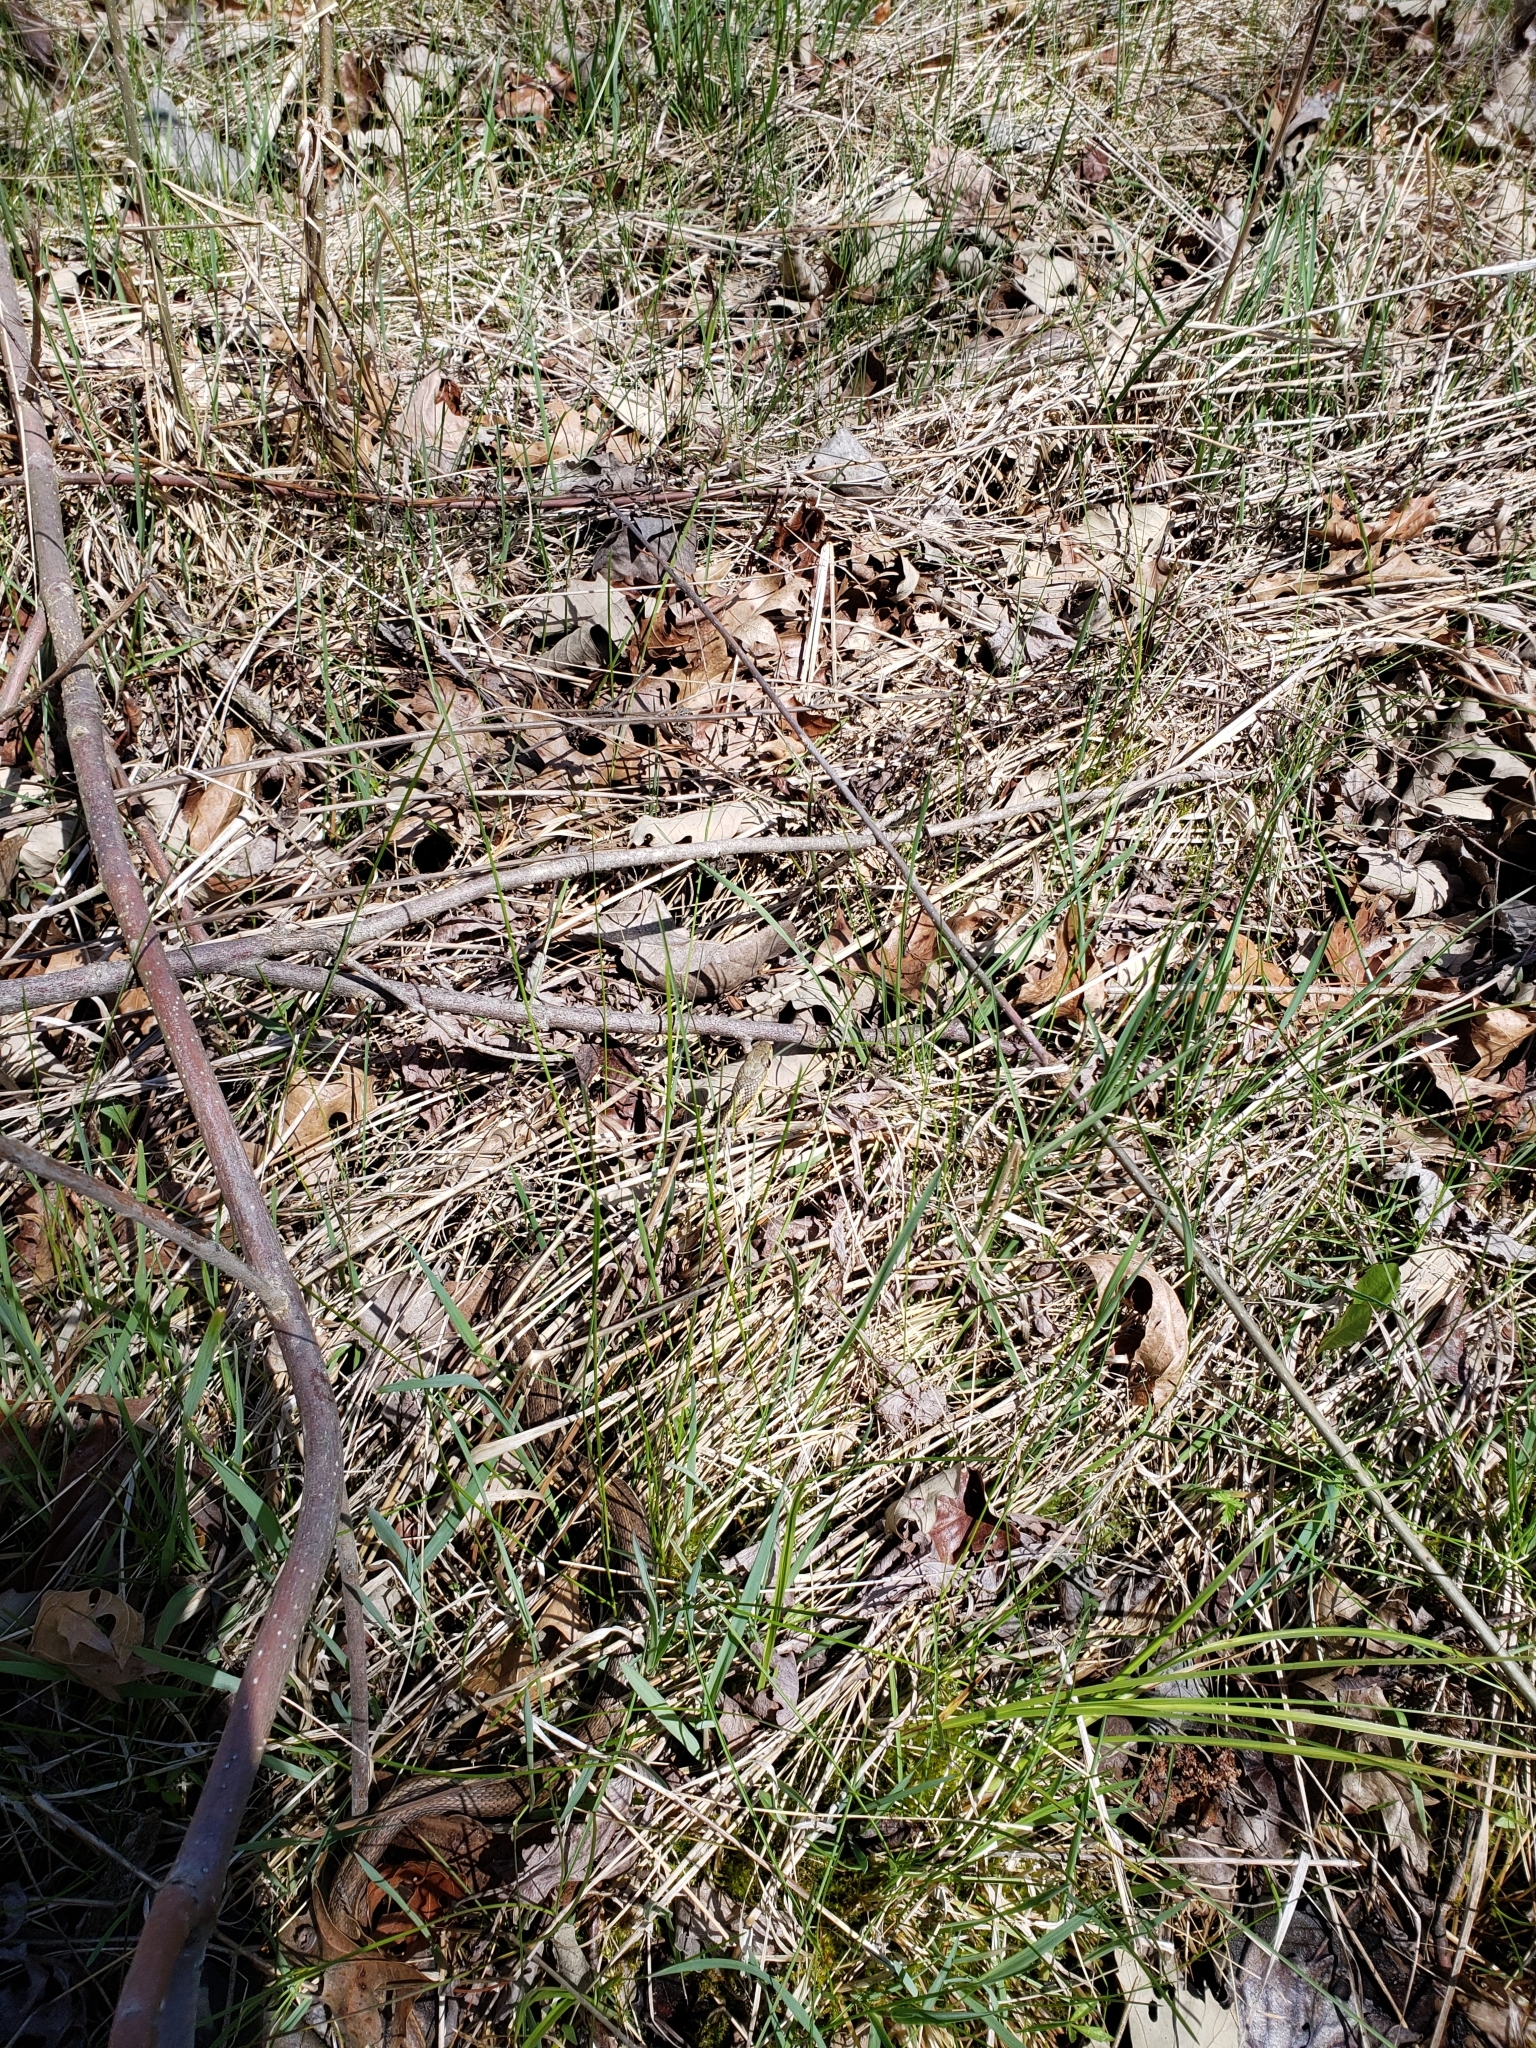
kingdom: Animalia
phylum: Chordata
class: Squamata
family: Colubridae
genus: Thamnophis
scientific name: Thamnophis sirtalis
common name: Common garter snake
